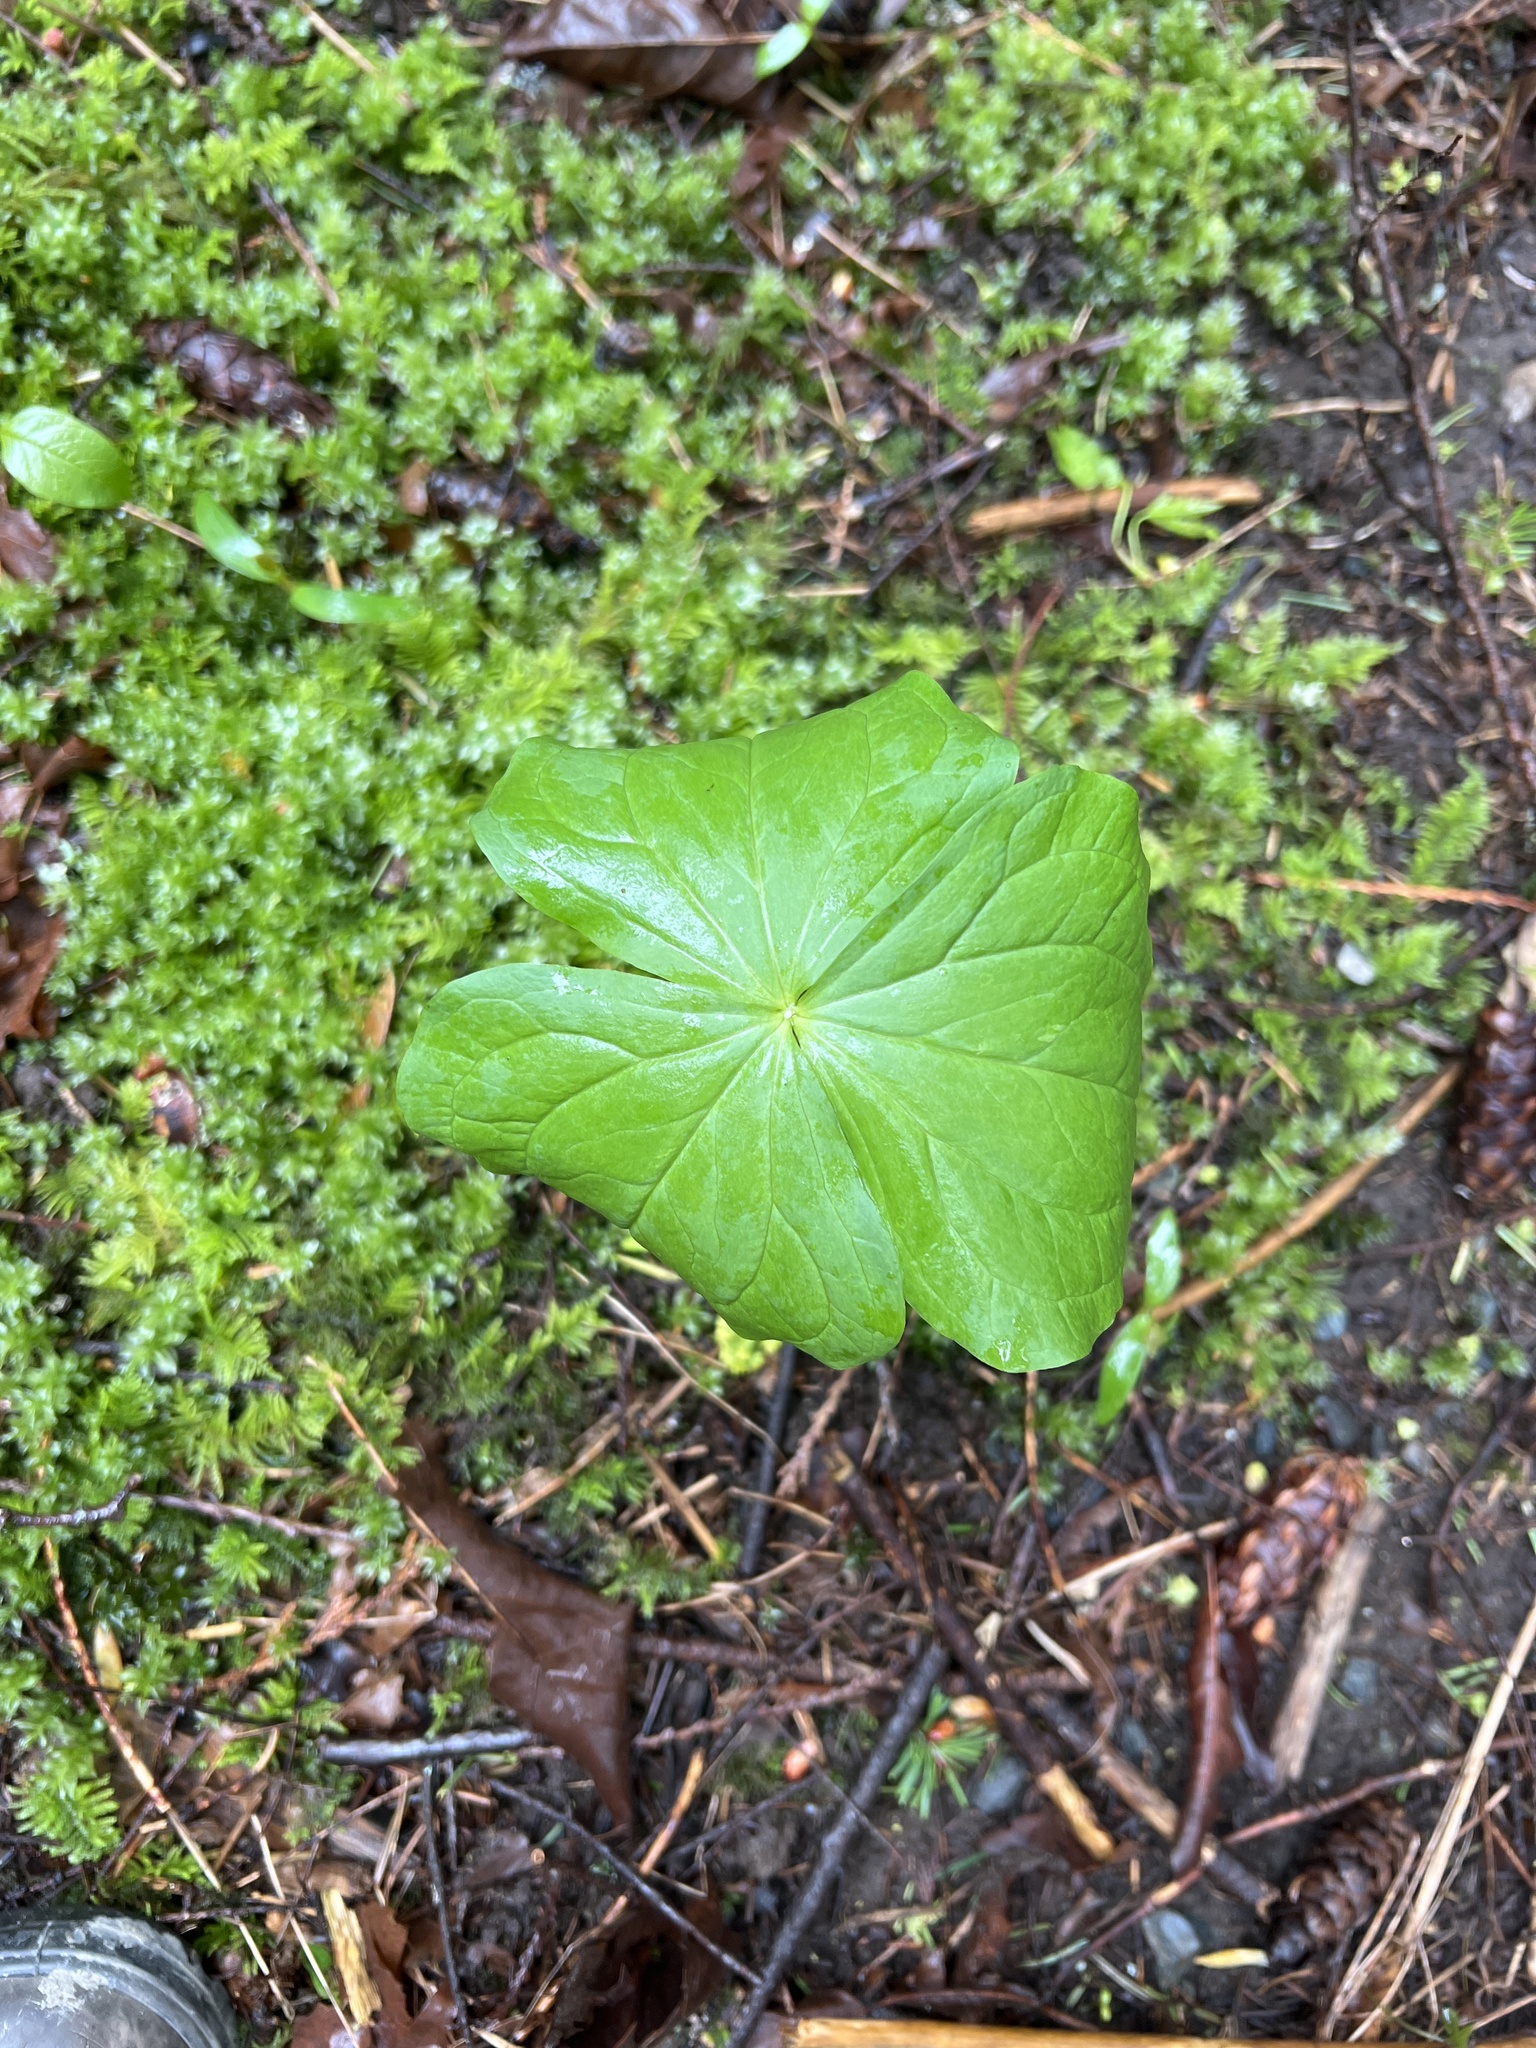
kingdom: Plantae
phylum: Tracheophyta
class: Liliopsida
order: Liliales
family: Melanthiaceae
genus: Trillium
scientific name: Trillium ovatum
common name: Pacific trillium
